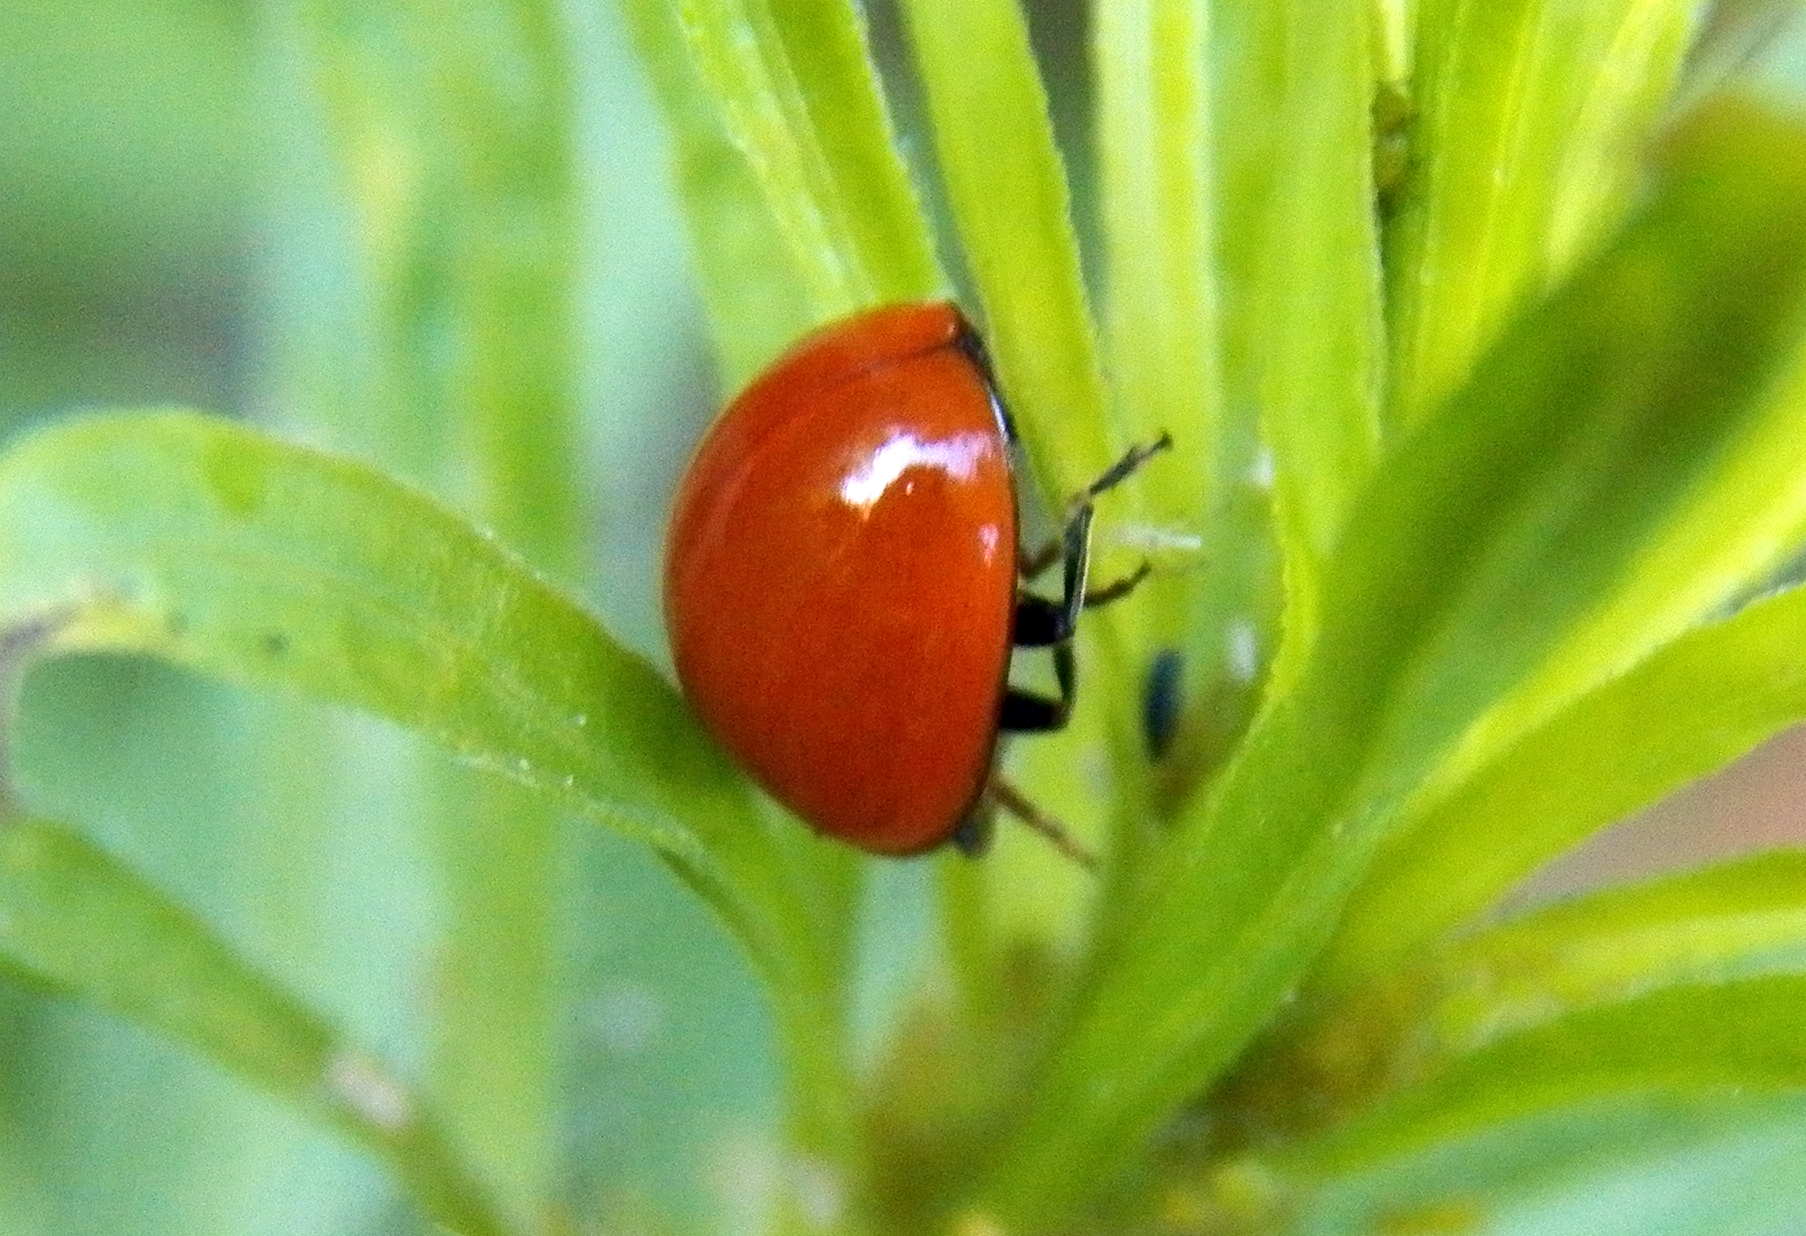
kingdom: Animalia
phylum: Arthropoda
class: Insecta
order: Coleoptera
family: Coccinellidae
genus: Cycloneda
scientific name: Cycloneda sanguinea
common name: Ladybird beetle
